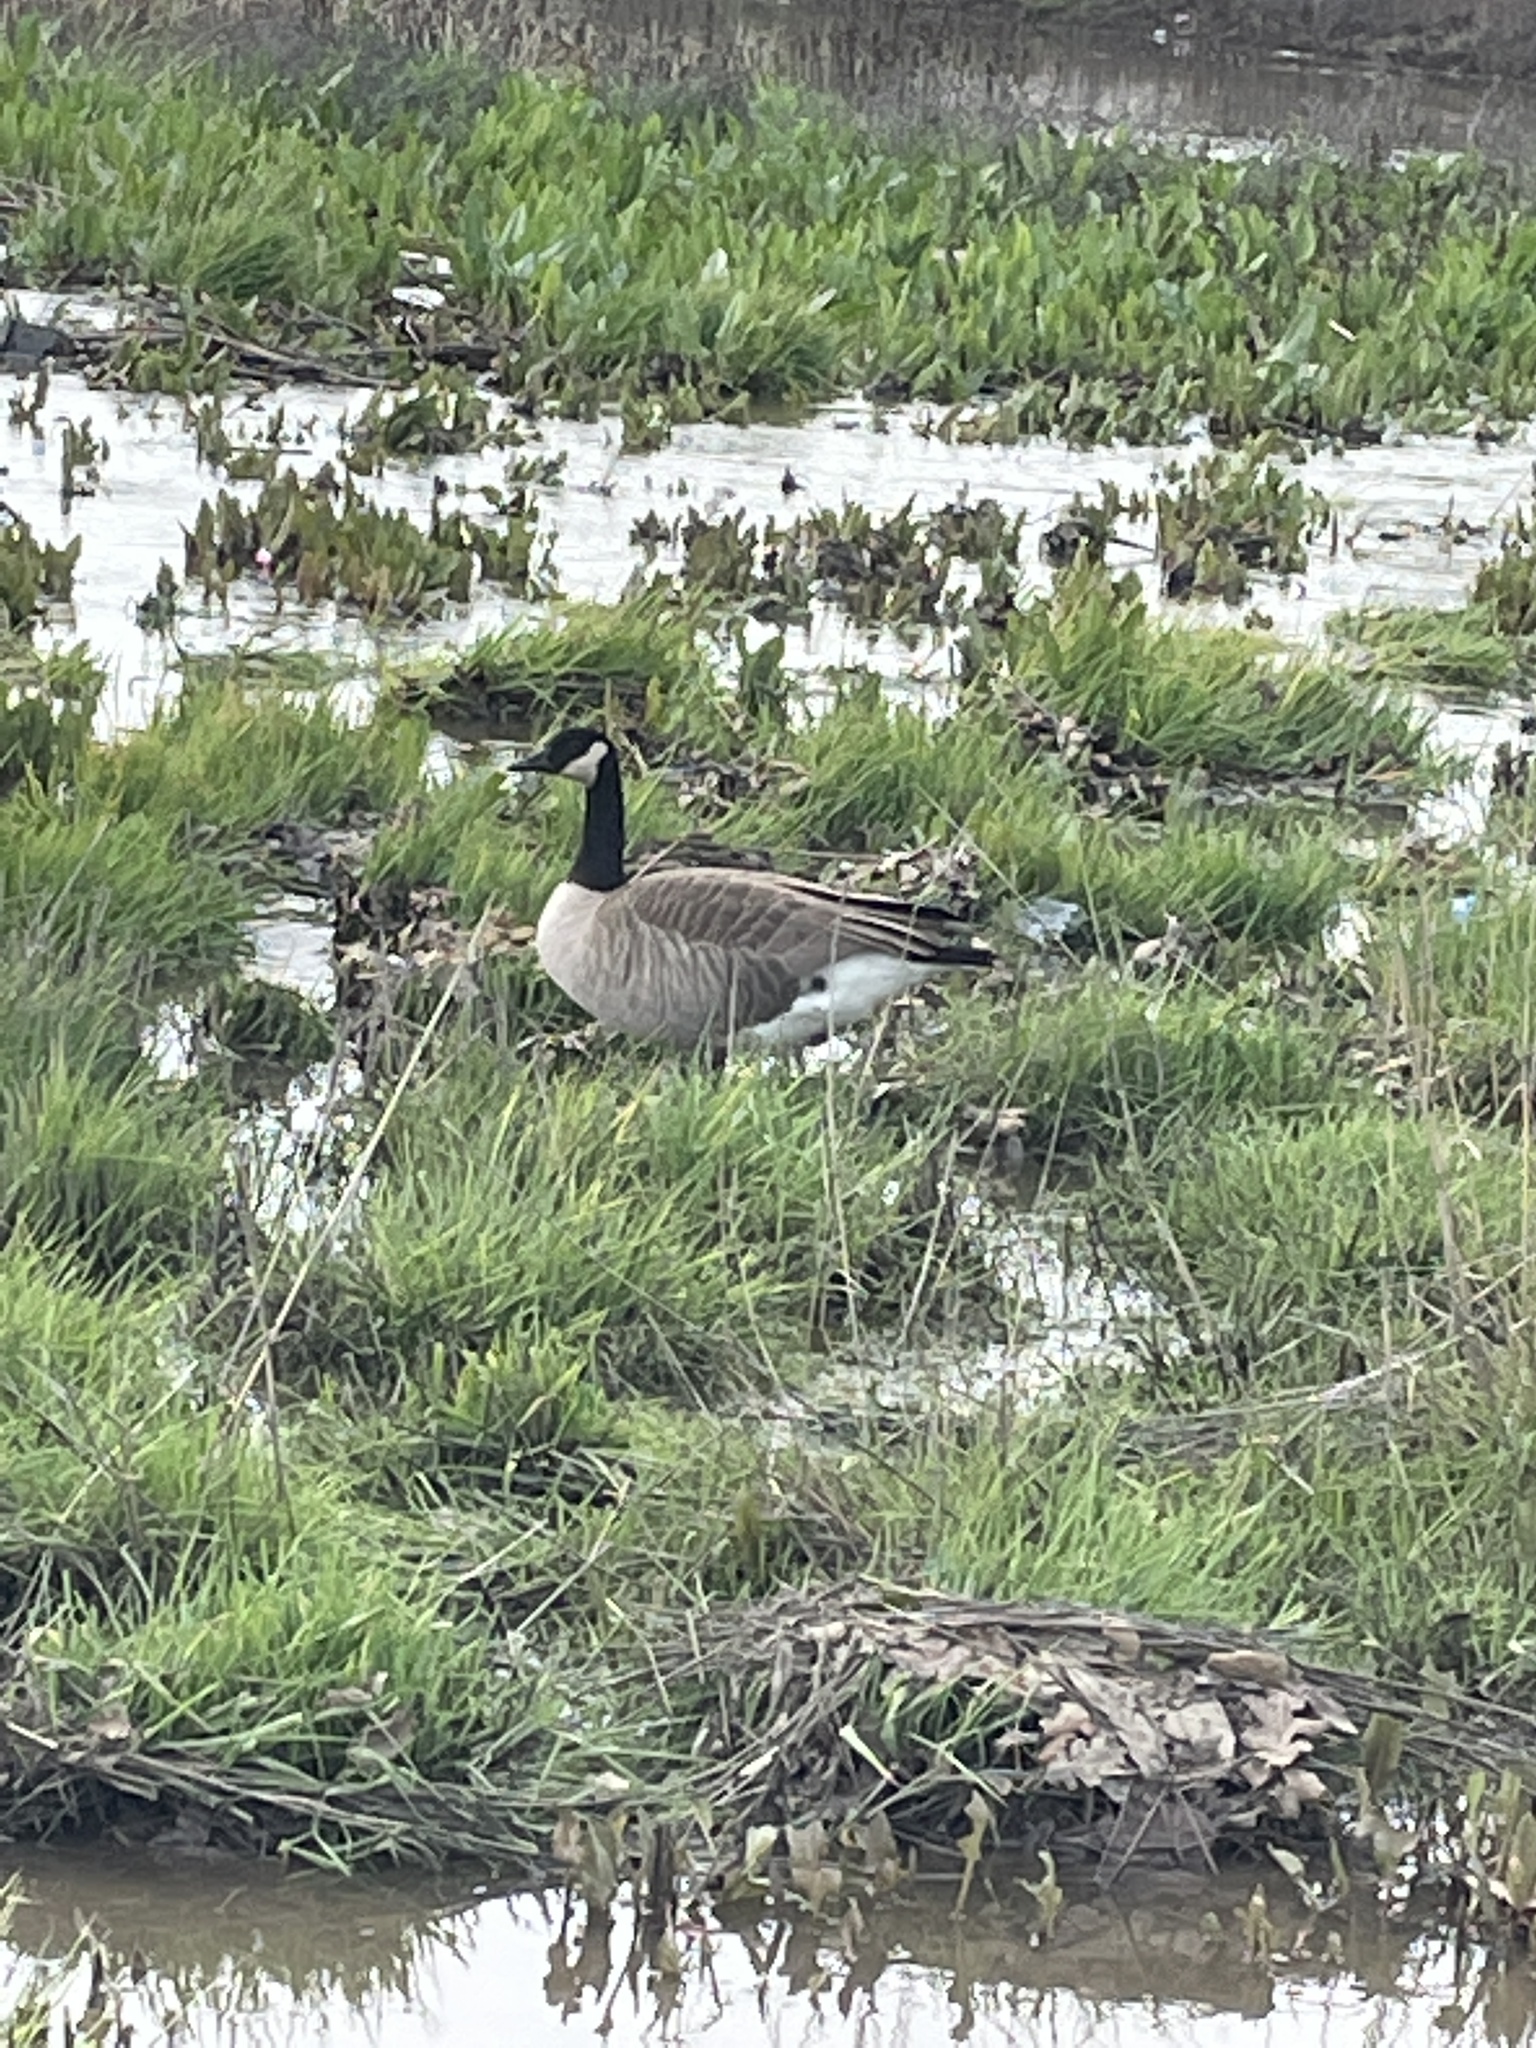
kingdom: Animalia
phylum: Chordata
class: Aves
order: Anseriformes
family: Anatidae
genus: Branta
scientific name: Branta canadensis
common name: Canada goose
